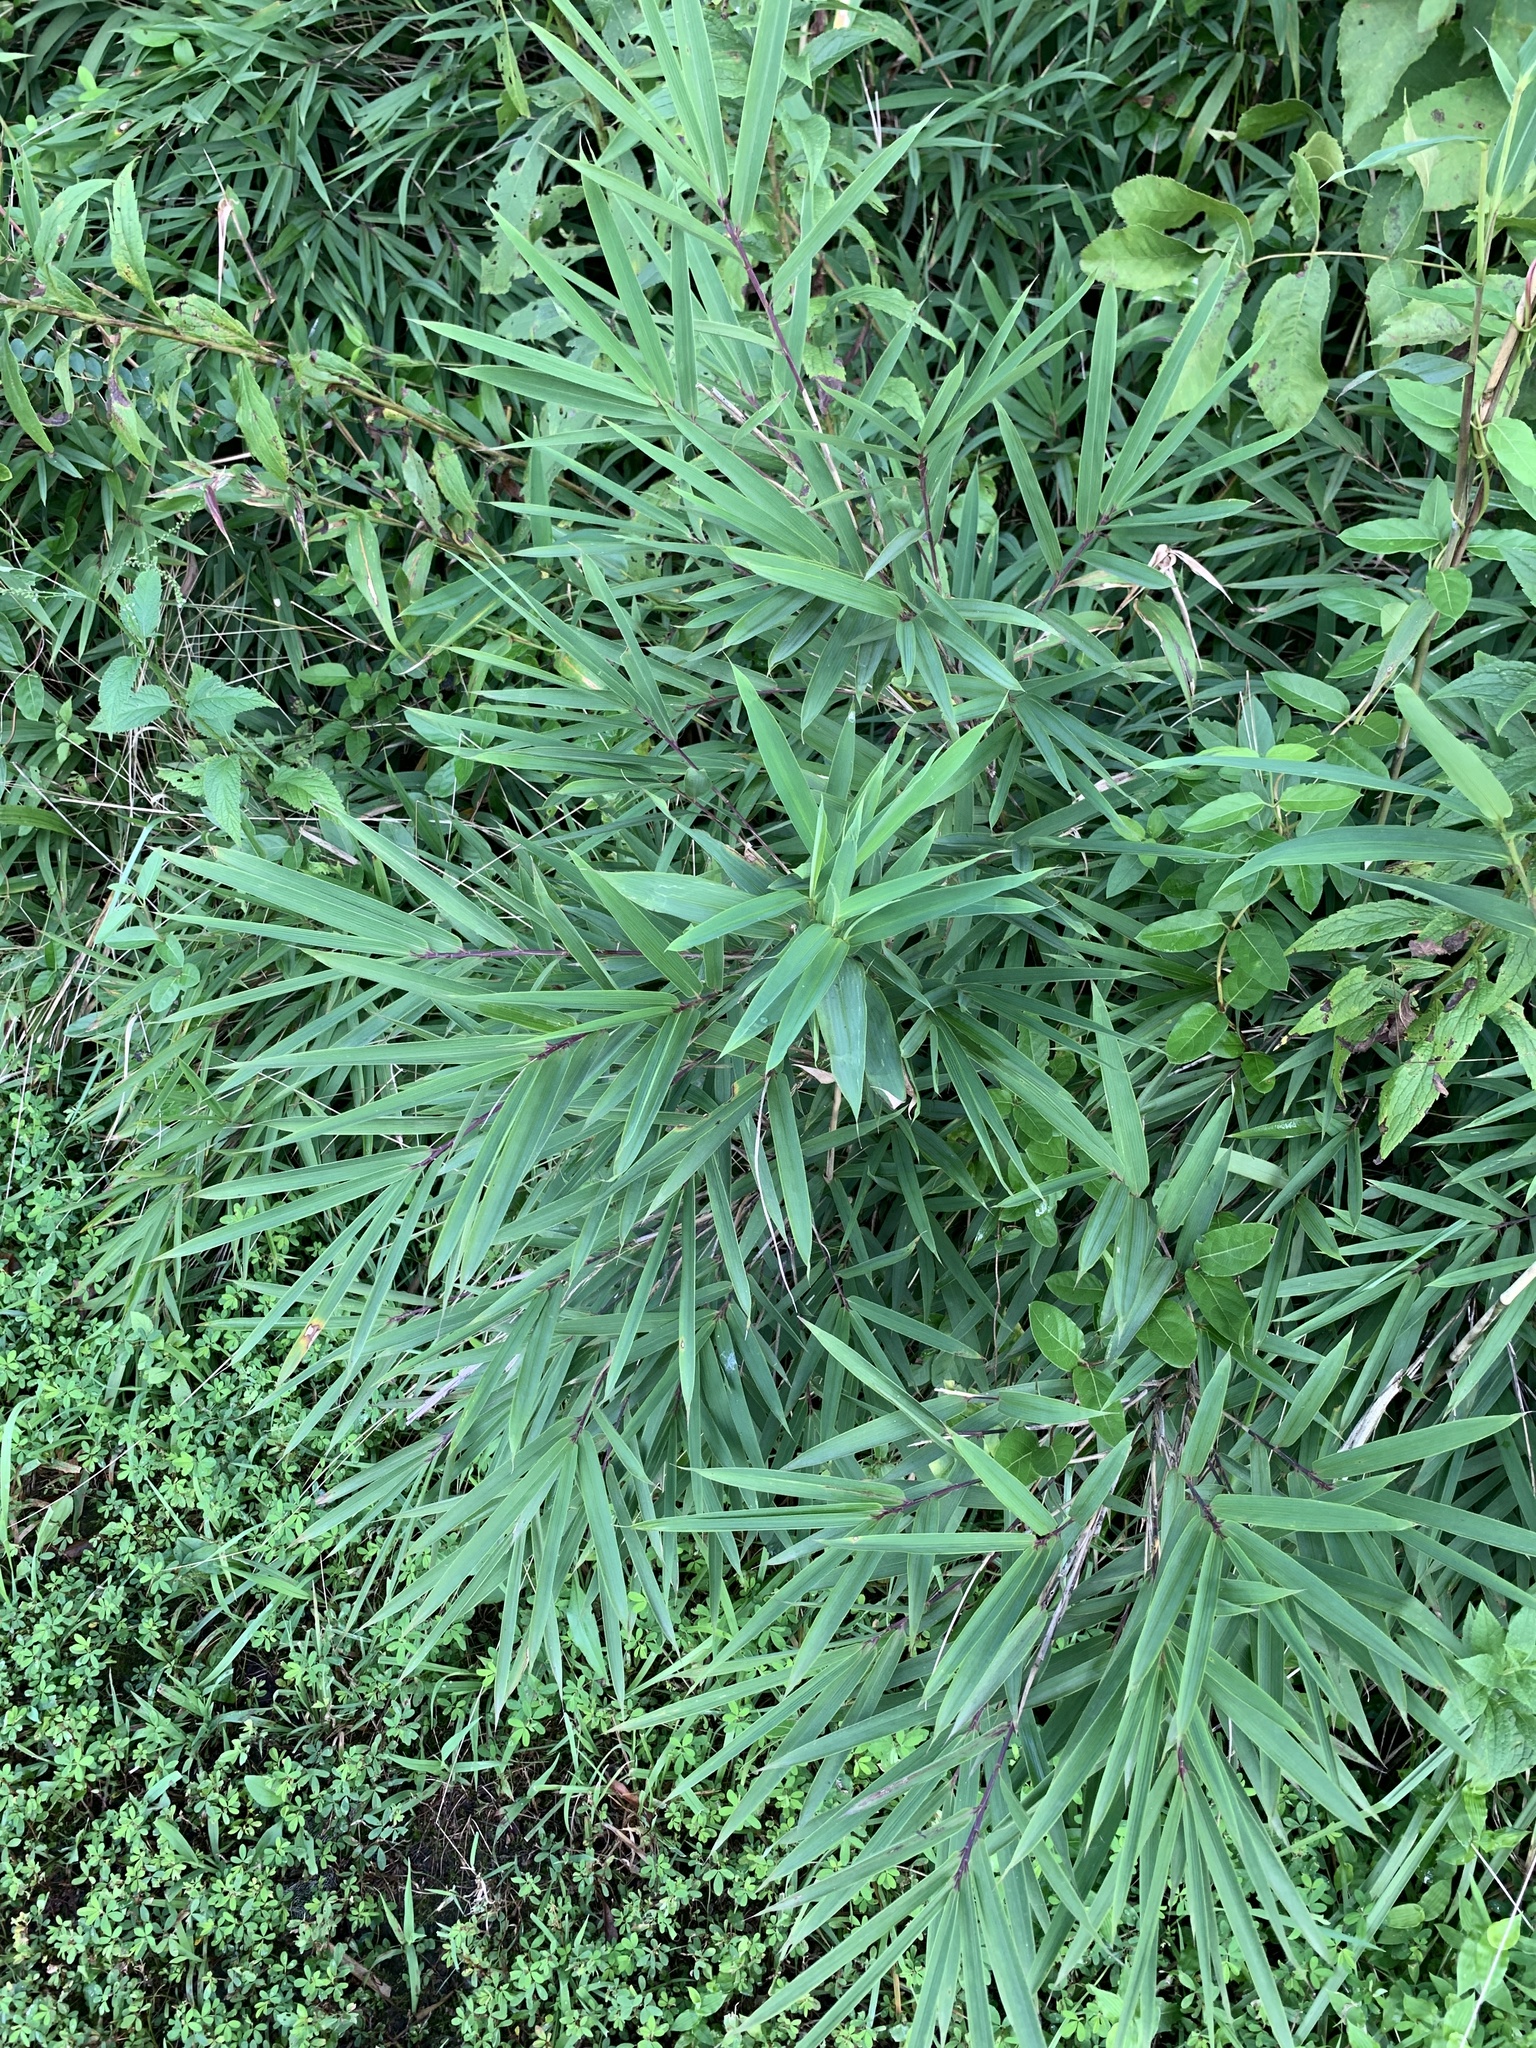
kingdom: Plantae
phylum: Tracheophyta
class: Liliopsida
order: Poales
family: Poaceae
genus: Arundinaria
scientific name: Arundinaria appalachiana
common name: Hill cane
